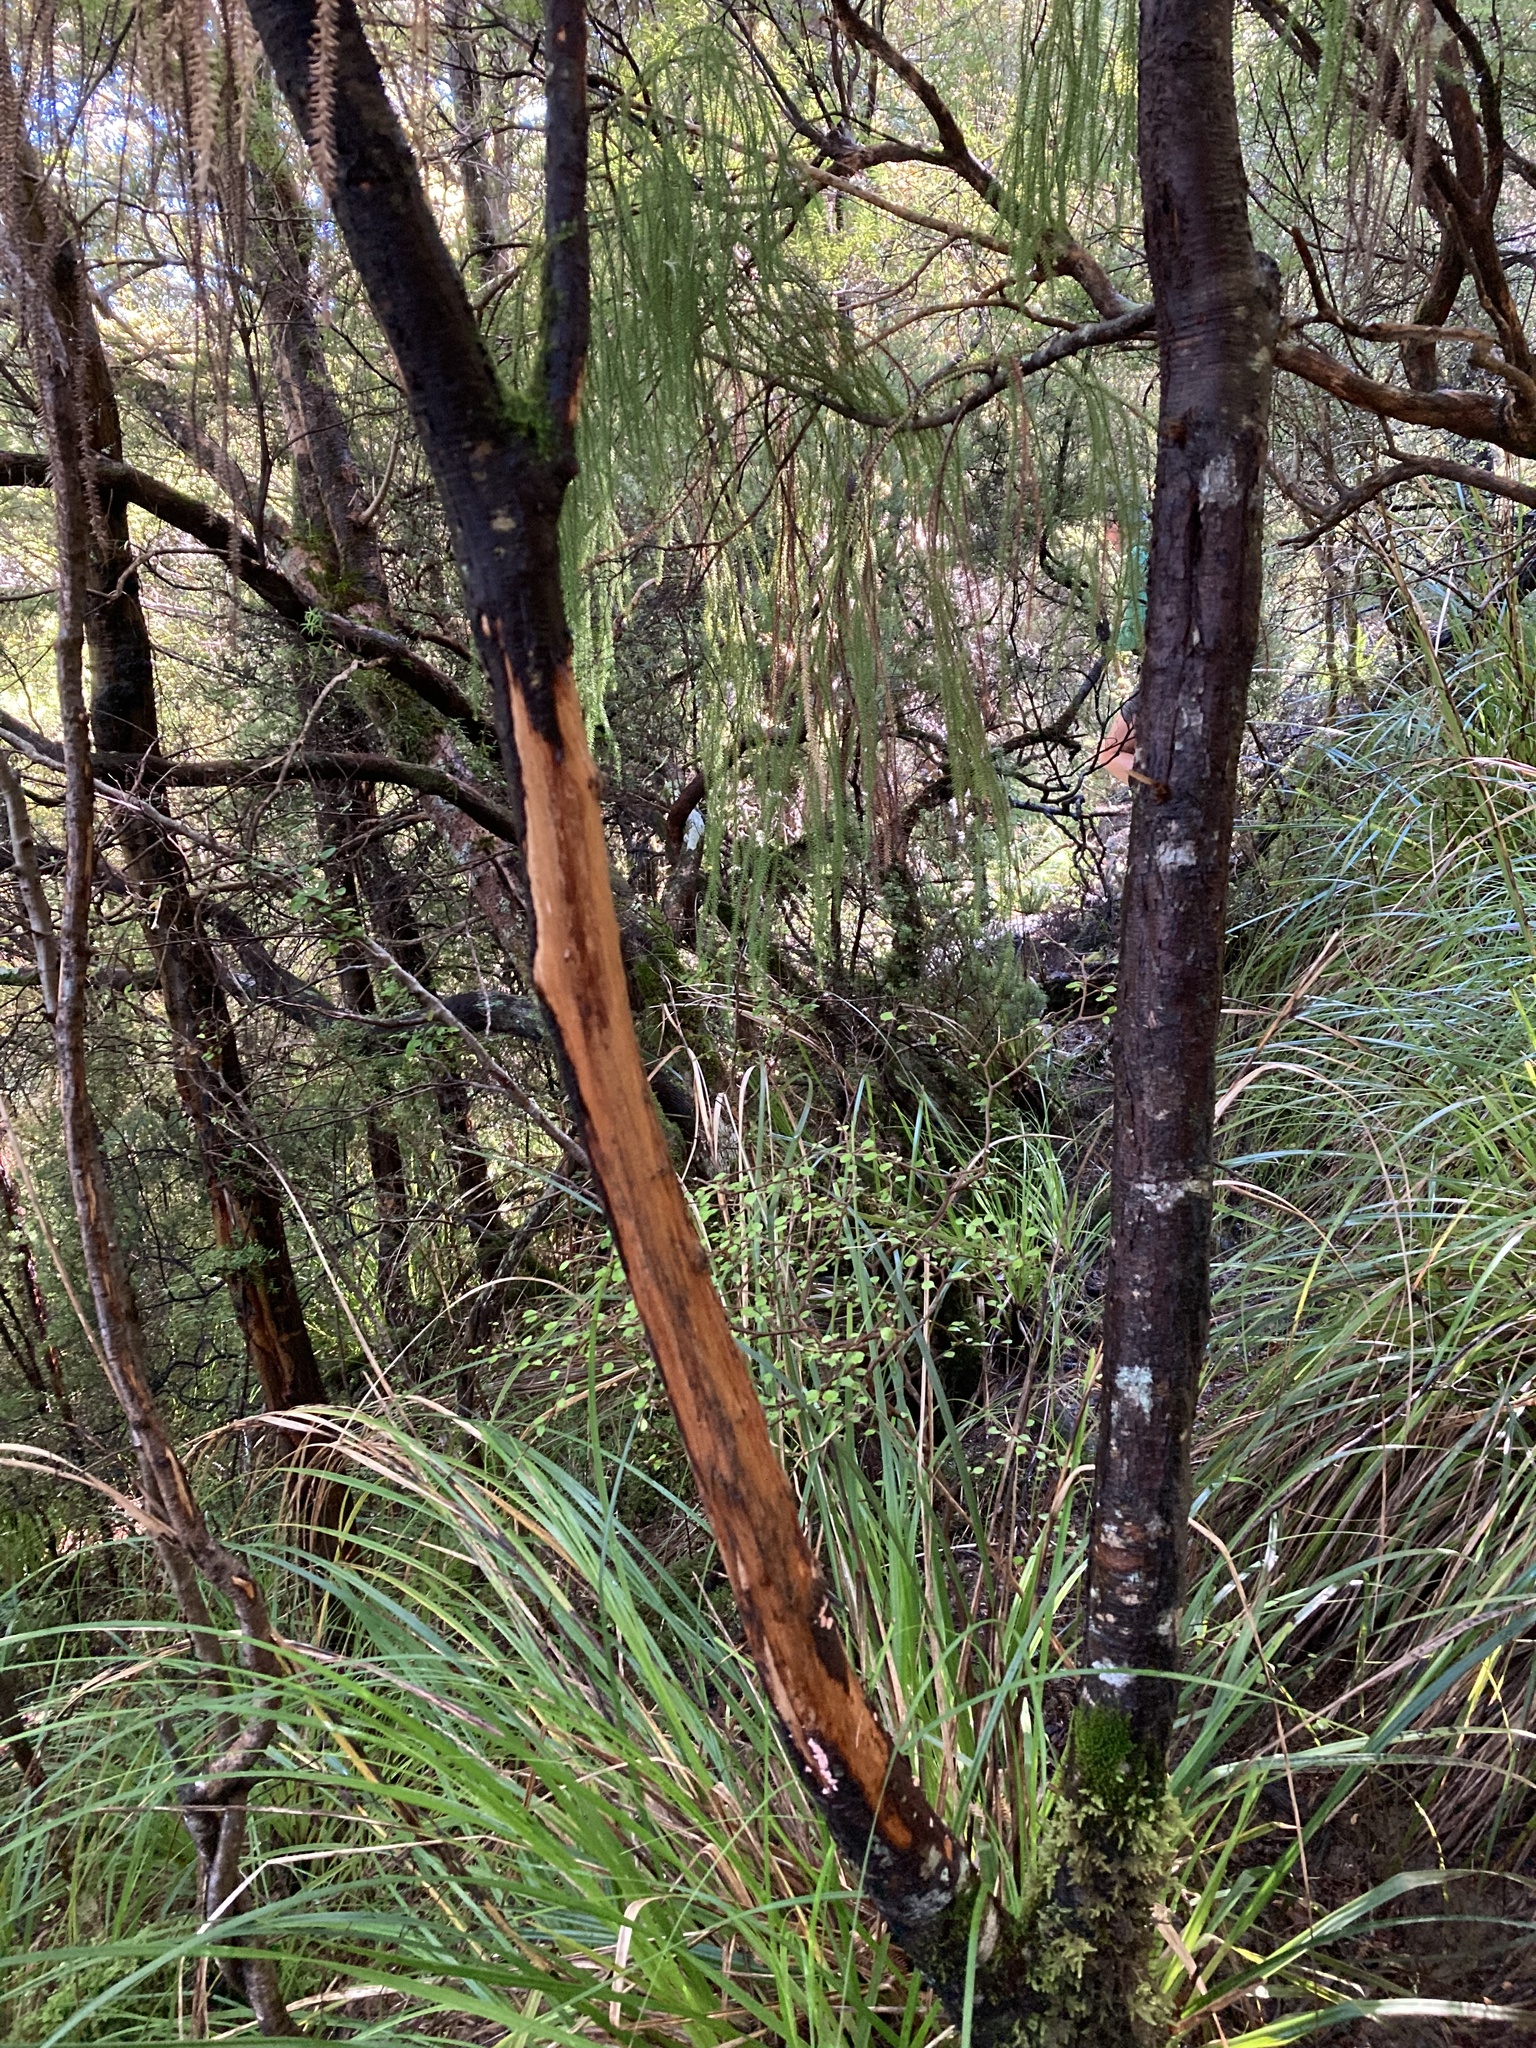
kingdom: Plantae
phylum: Tracheophyta
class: Pinopsida
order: Pinales
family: Podocarpaceae
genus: Dacrydium
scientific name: Dacrydium cupressinum
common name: Red pine
